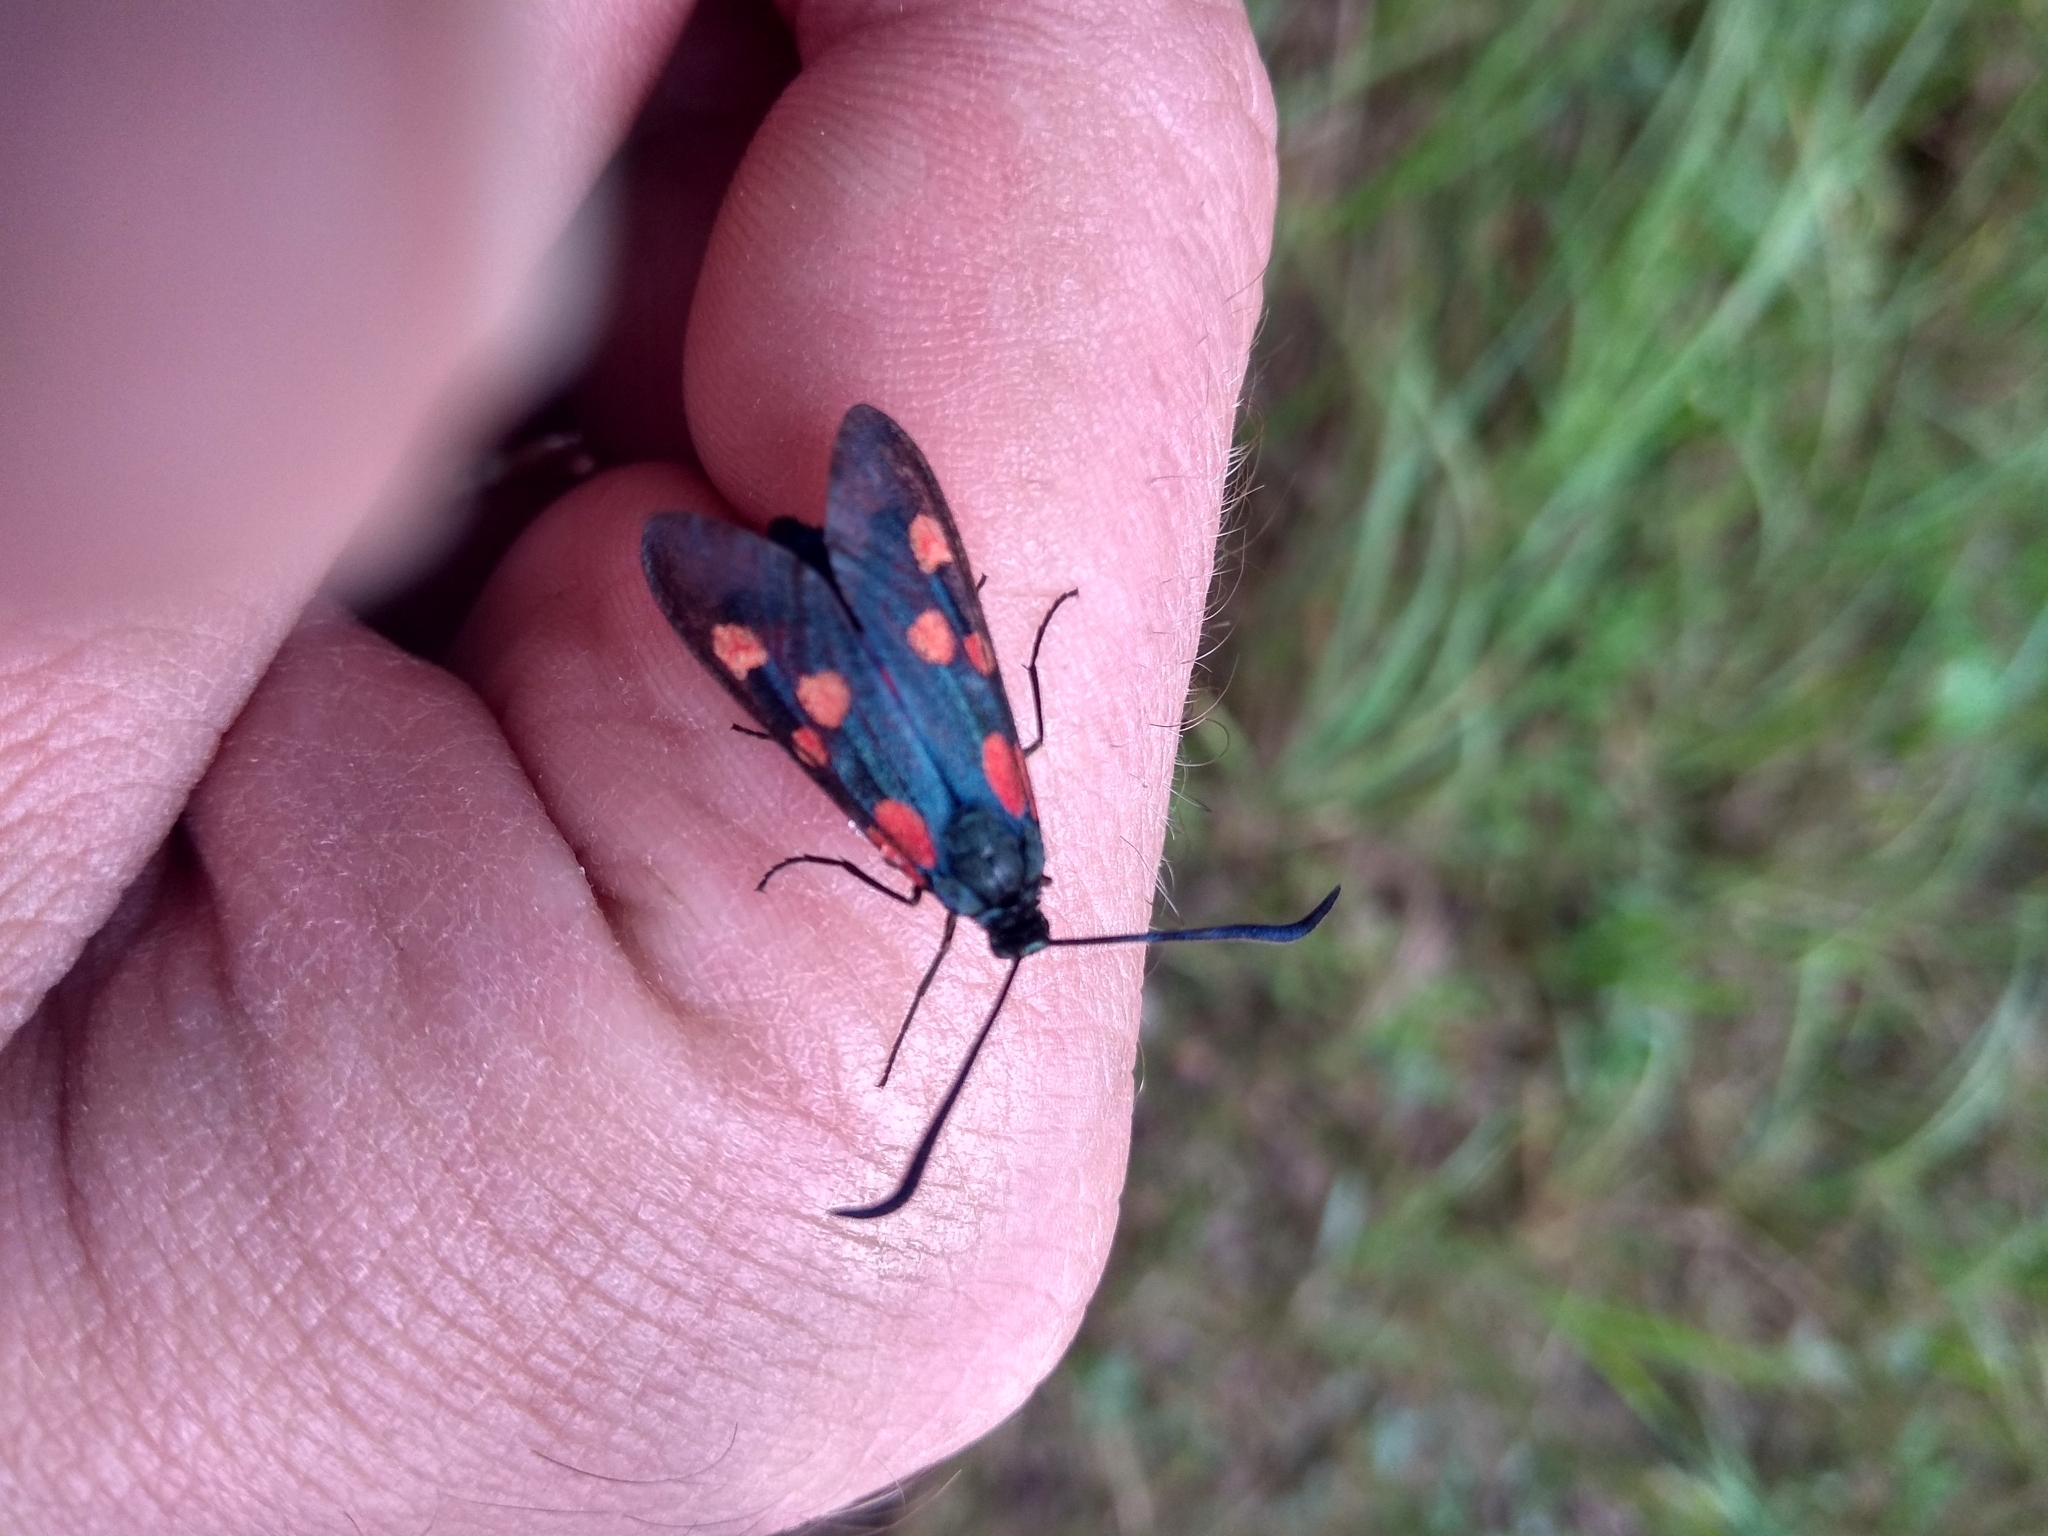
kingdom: Animalia
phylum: Arthropoda
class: Insecta
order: Lepidoptera
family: Zygaenidae
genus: Zygaena
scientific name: Zygaena lonicerae
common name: Narrow-bordered five-spot burnet
